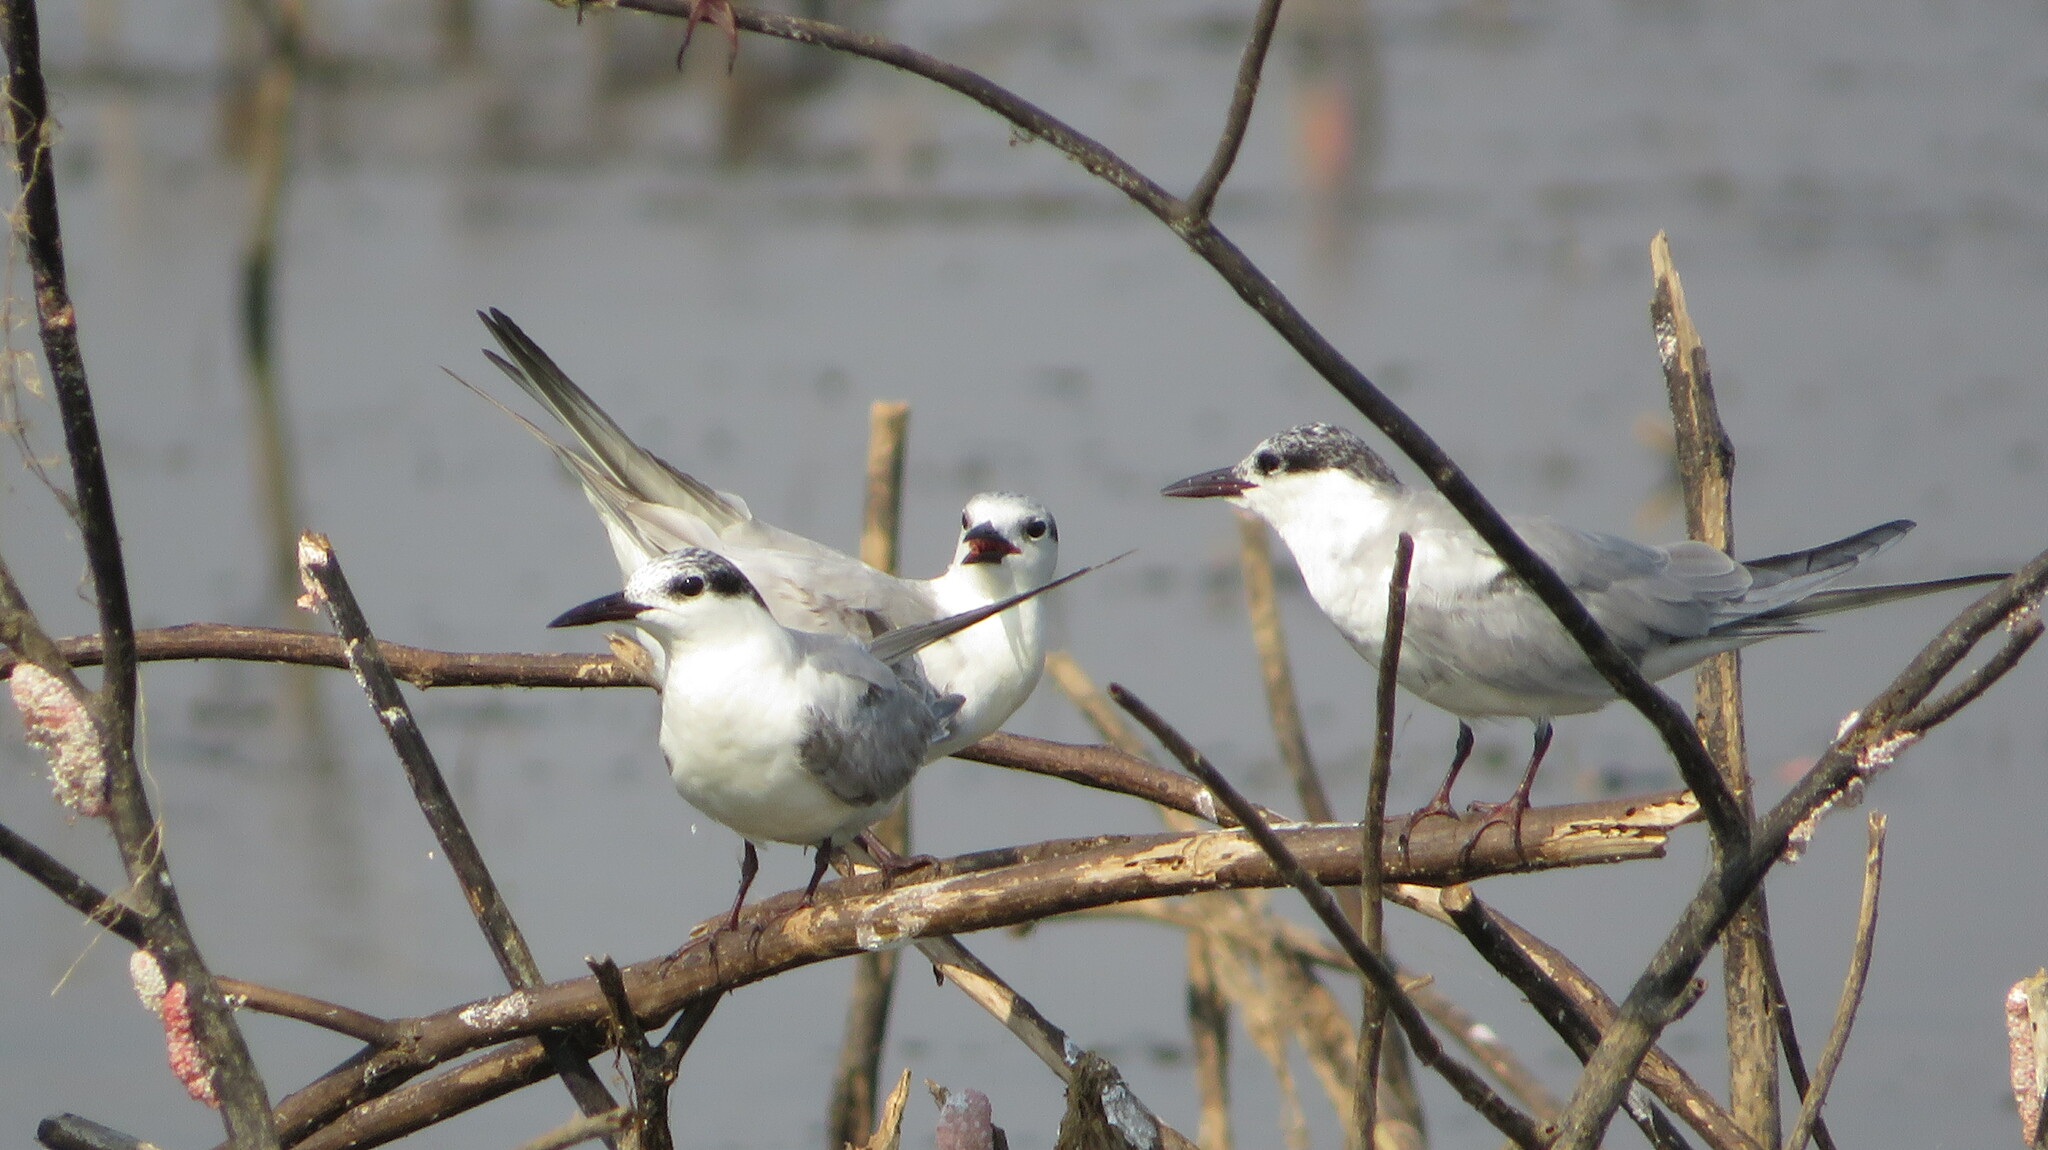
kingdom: Animalia
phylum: Chordata
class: Aves
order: Charadriiformes
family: Laridae
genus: Chlidonias
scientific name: Chlidonias hybrida
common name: Whiskered tern
